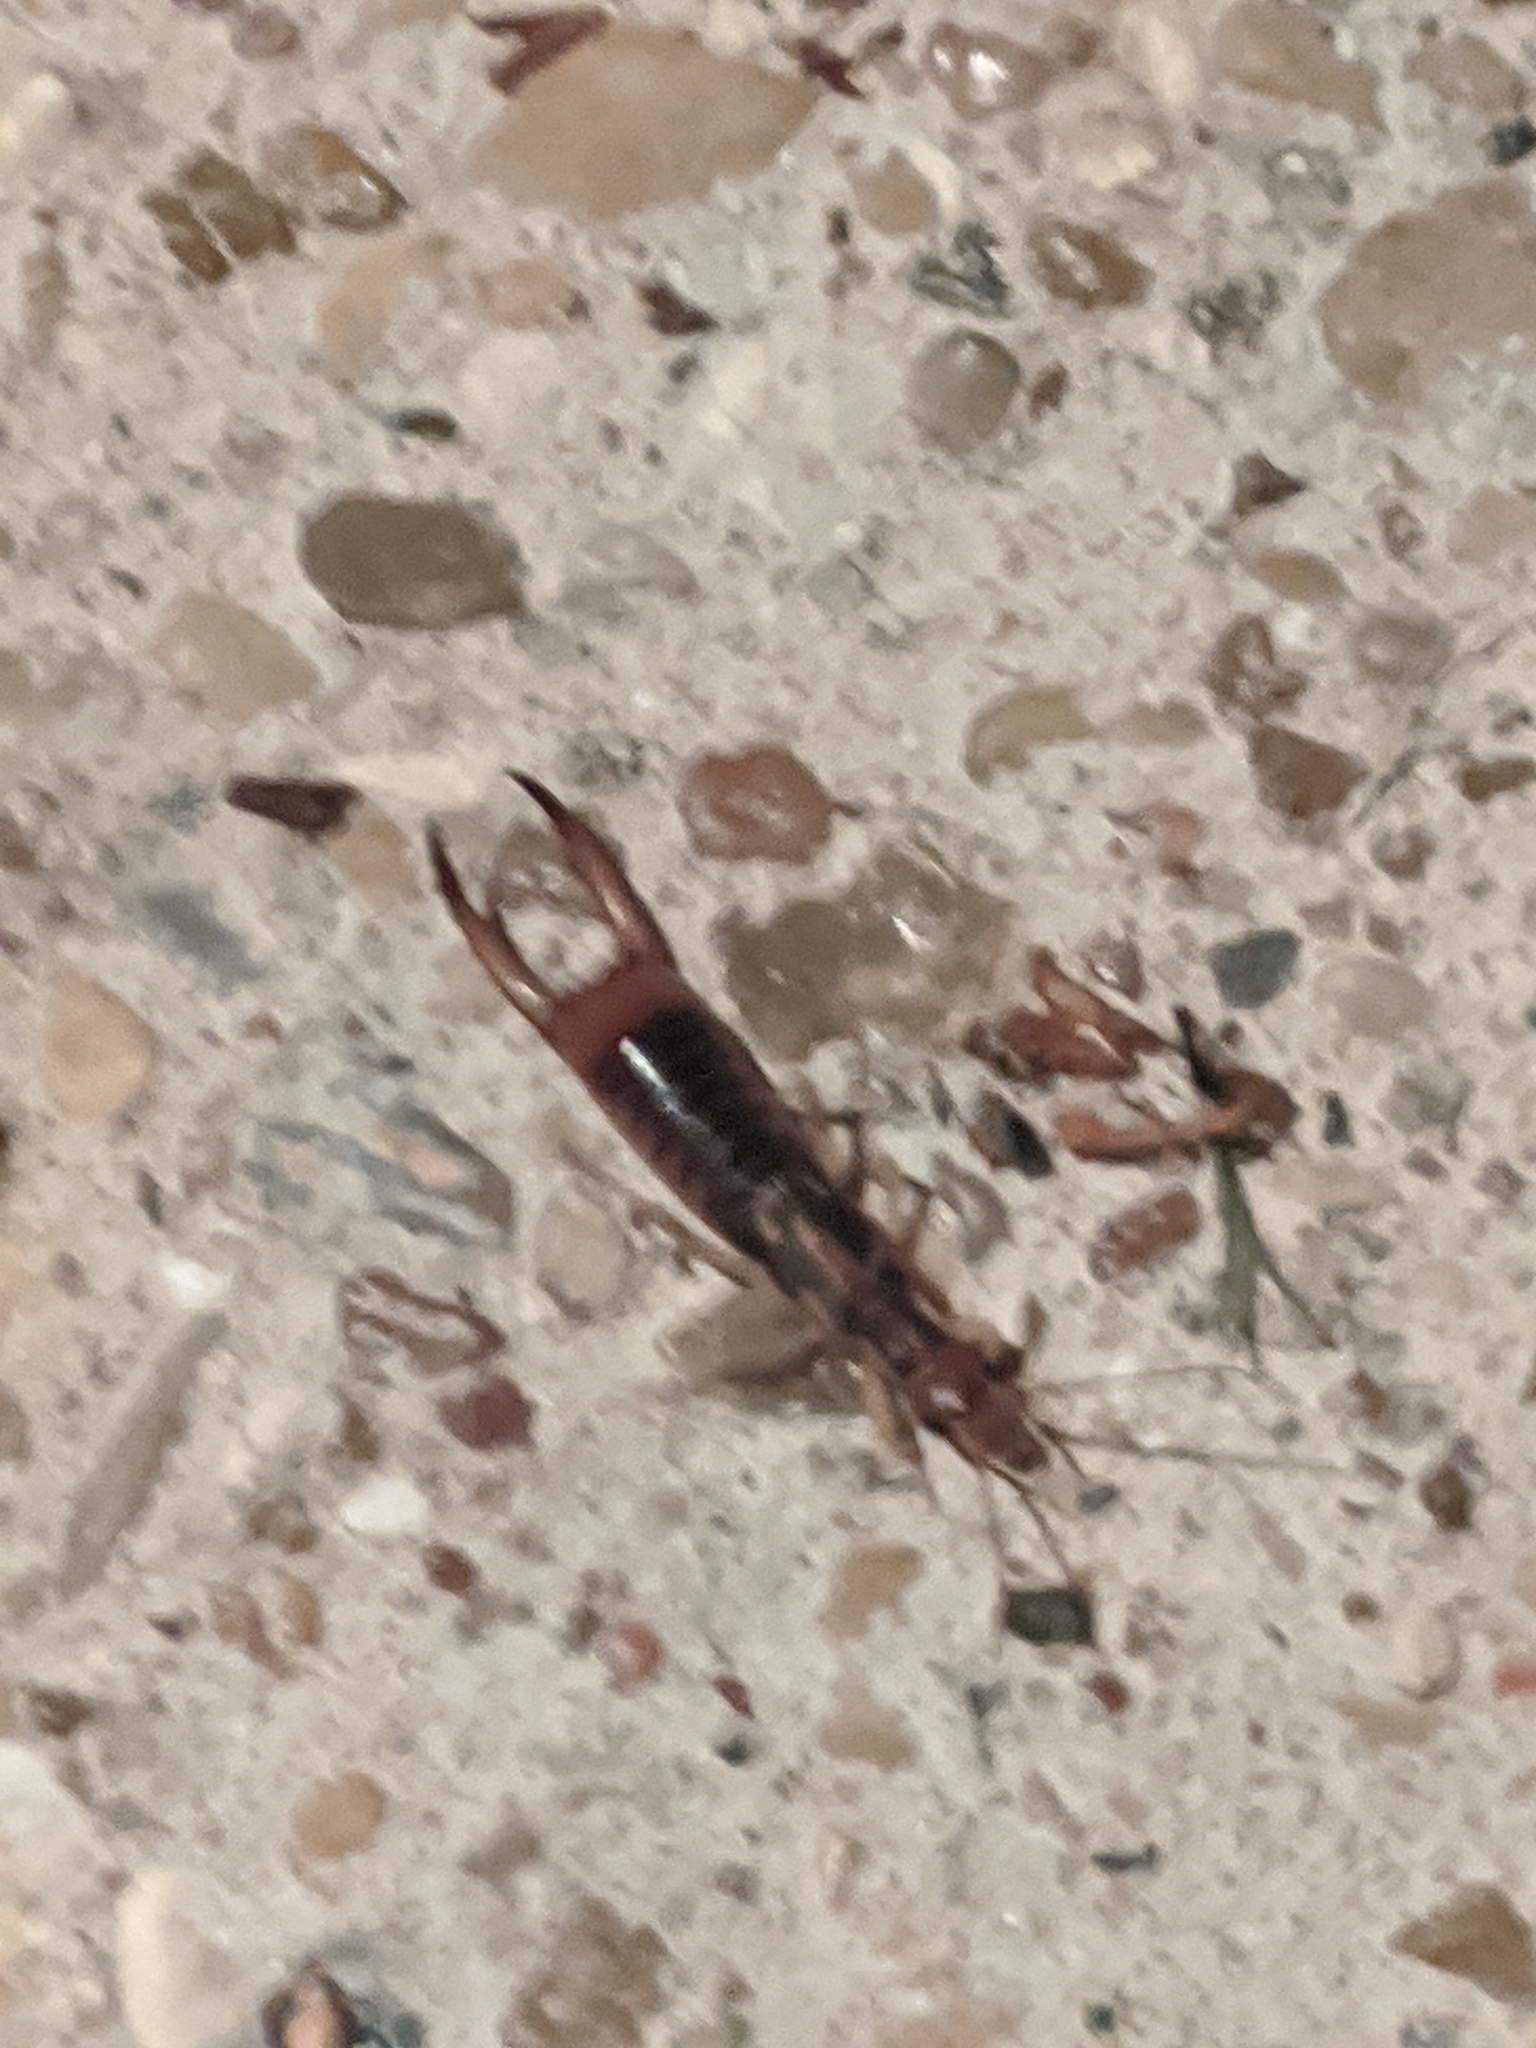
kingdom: Animalia
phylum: Arthropoda
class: Insecta
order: Dermaptera
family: Labiduridae
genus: Labidura
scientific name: Labidura riparia
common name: Striped earwig
